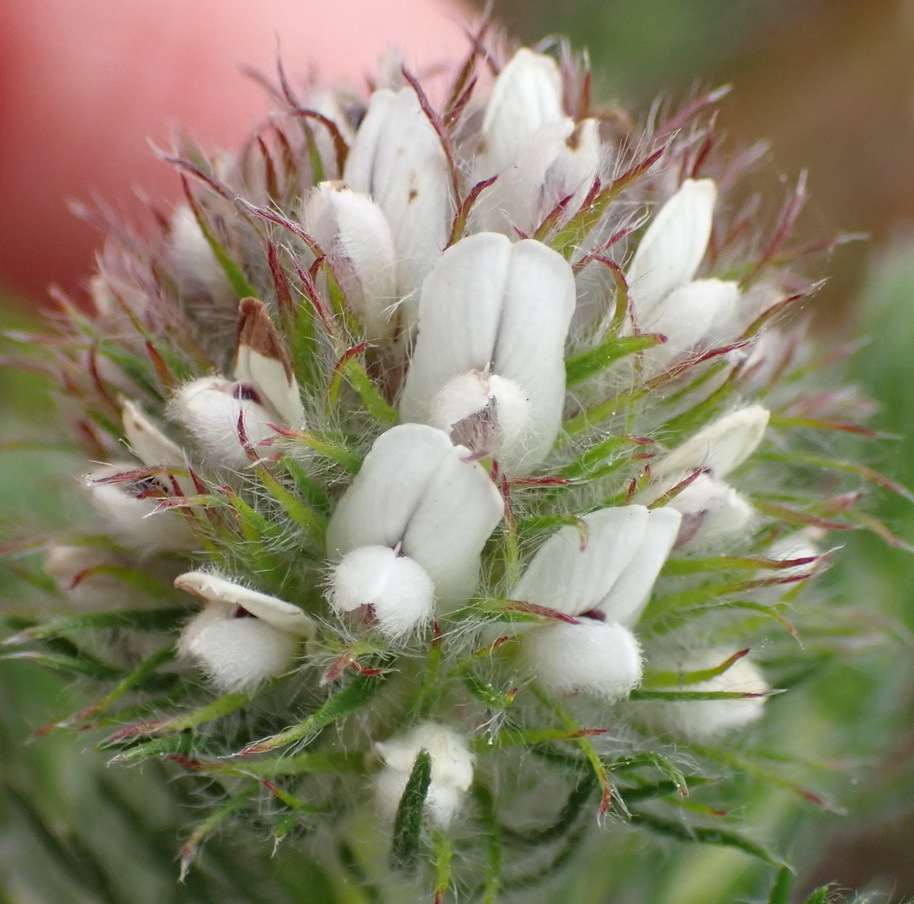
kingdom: Plantae
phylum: Tracheophyta
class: Magnoliopsida
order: Fabales
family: Fabaceae
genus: Aspalathus
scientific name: Aspalathus cerrhantha
